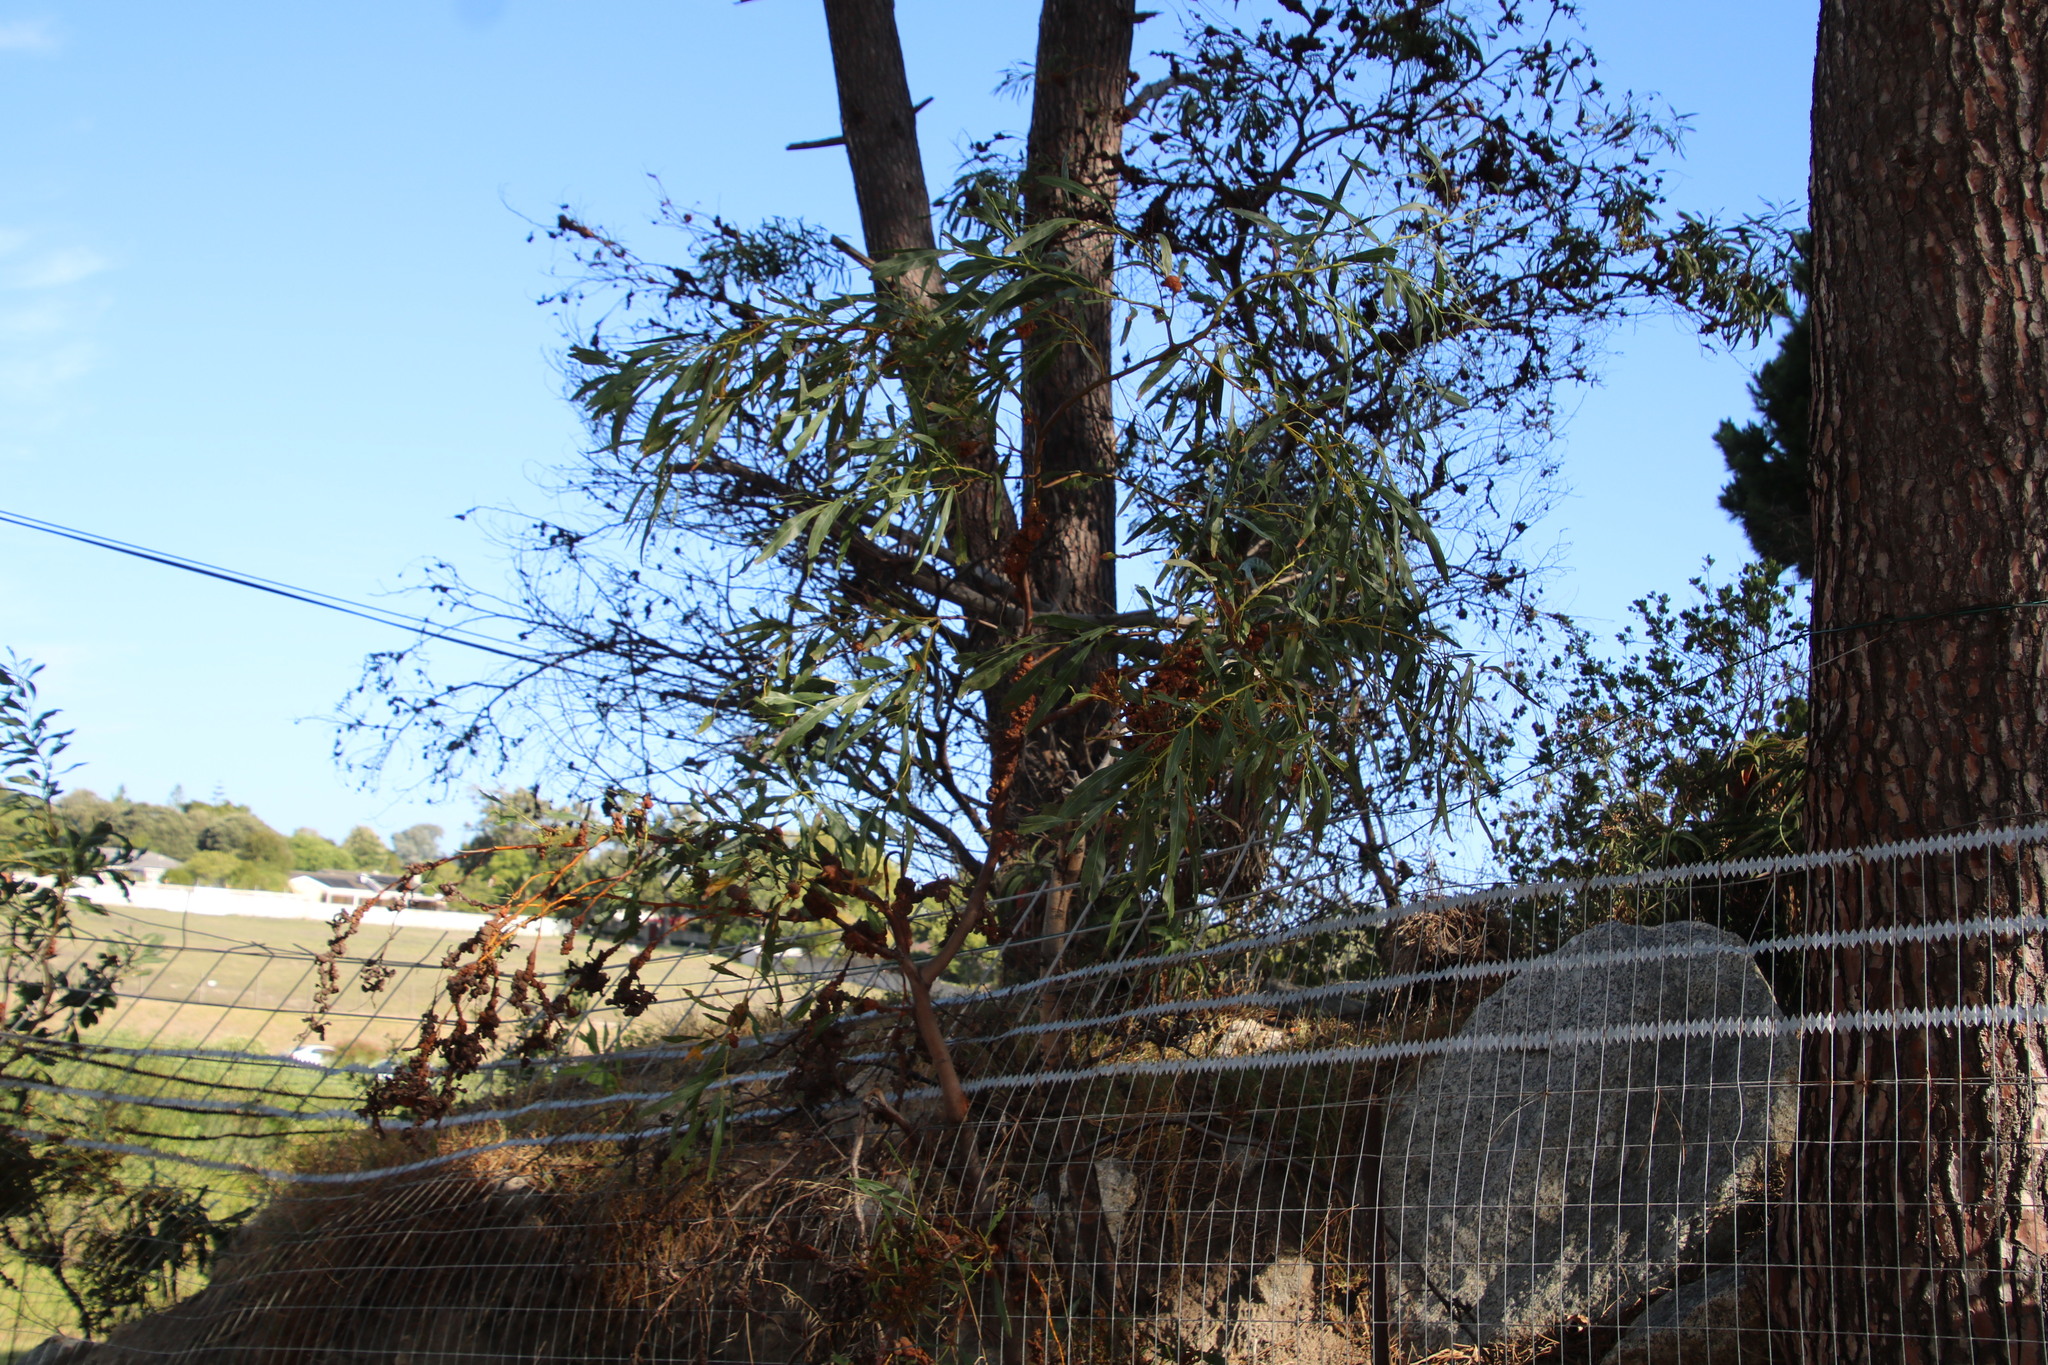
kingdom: Plantae
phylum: Tracheophyta
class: Magnoliopsida
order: Fabales
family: Fabaceae
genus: Acacia
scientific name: Acacia saligna
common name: Orange wattle
